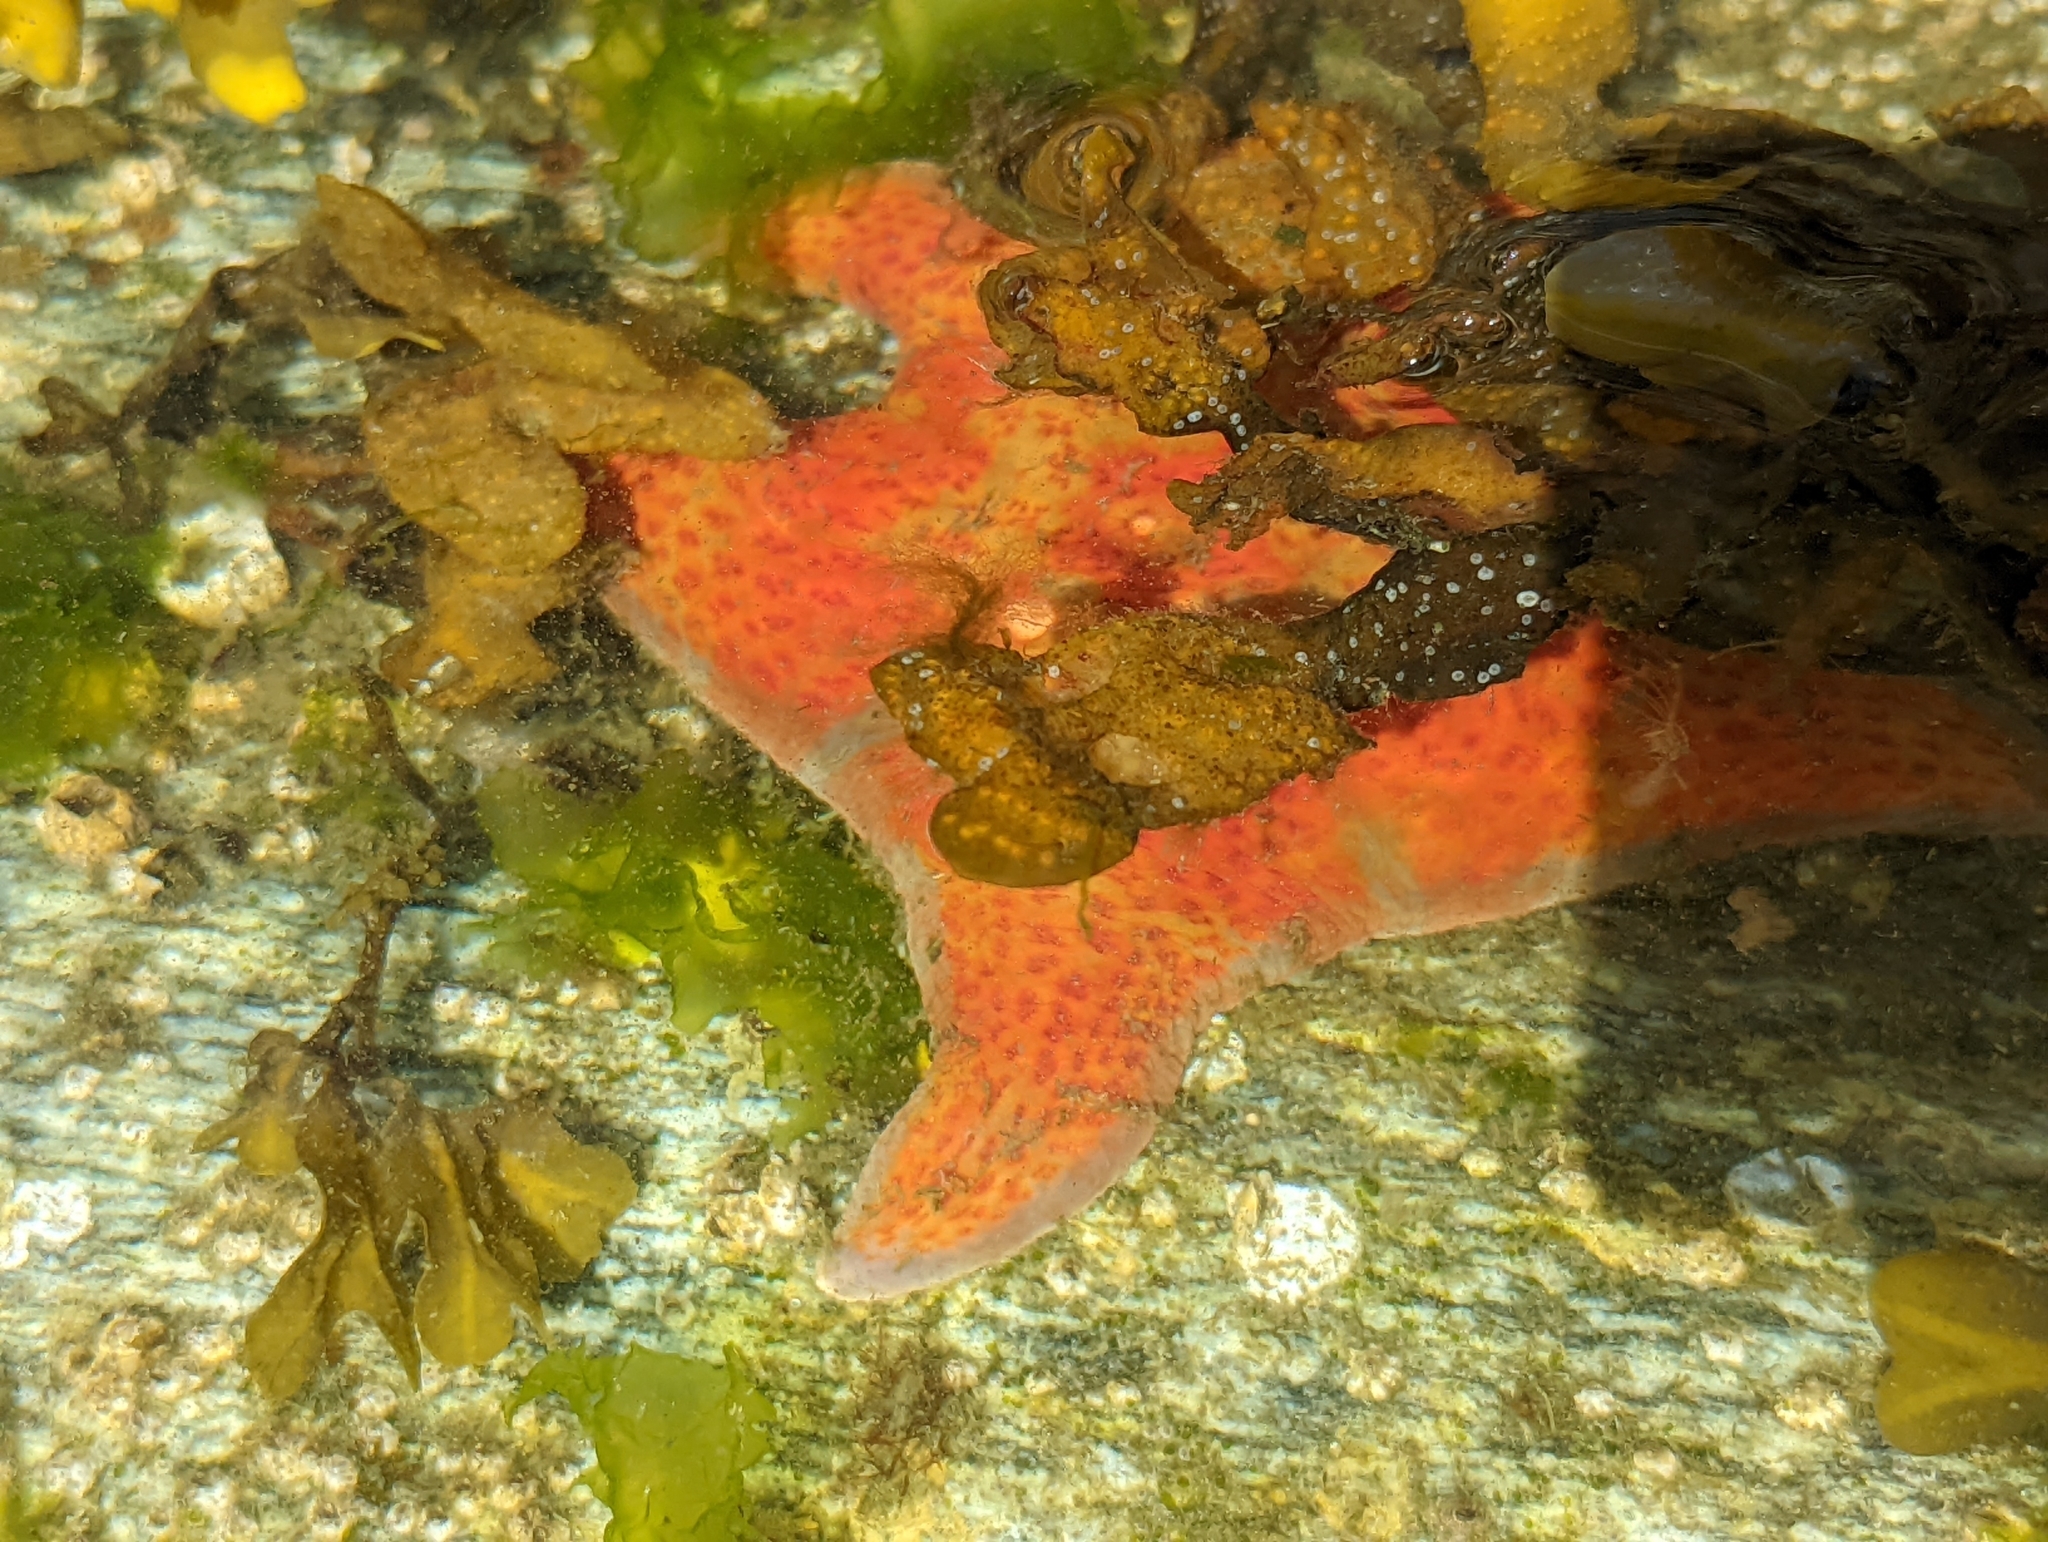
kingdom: Animalia
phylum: Echinodermata
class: Asteroidea
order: Valvatida
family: Asteropseidae
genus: Dermasterias
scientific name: Dermasterias imbricata
